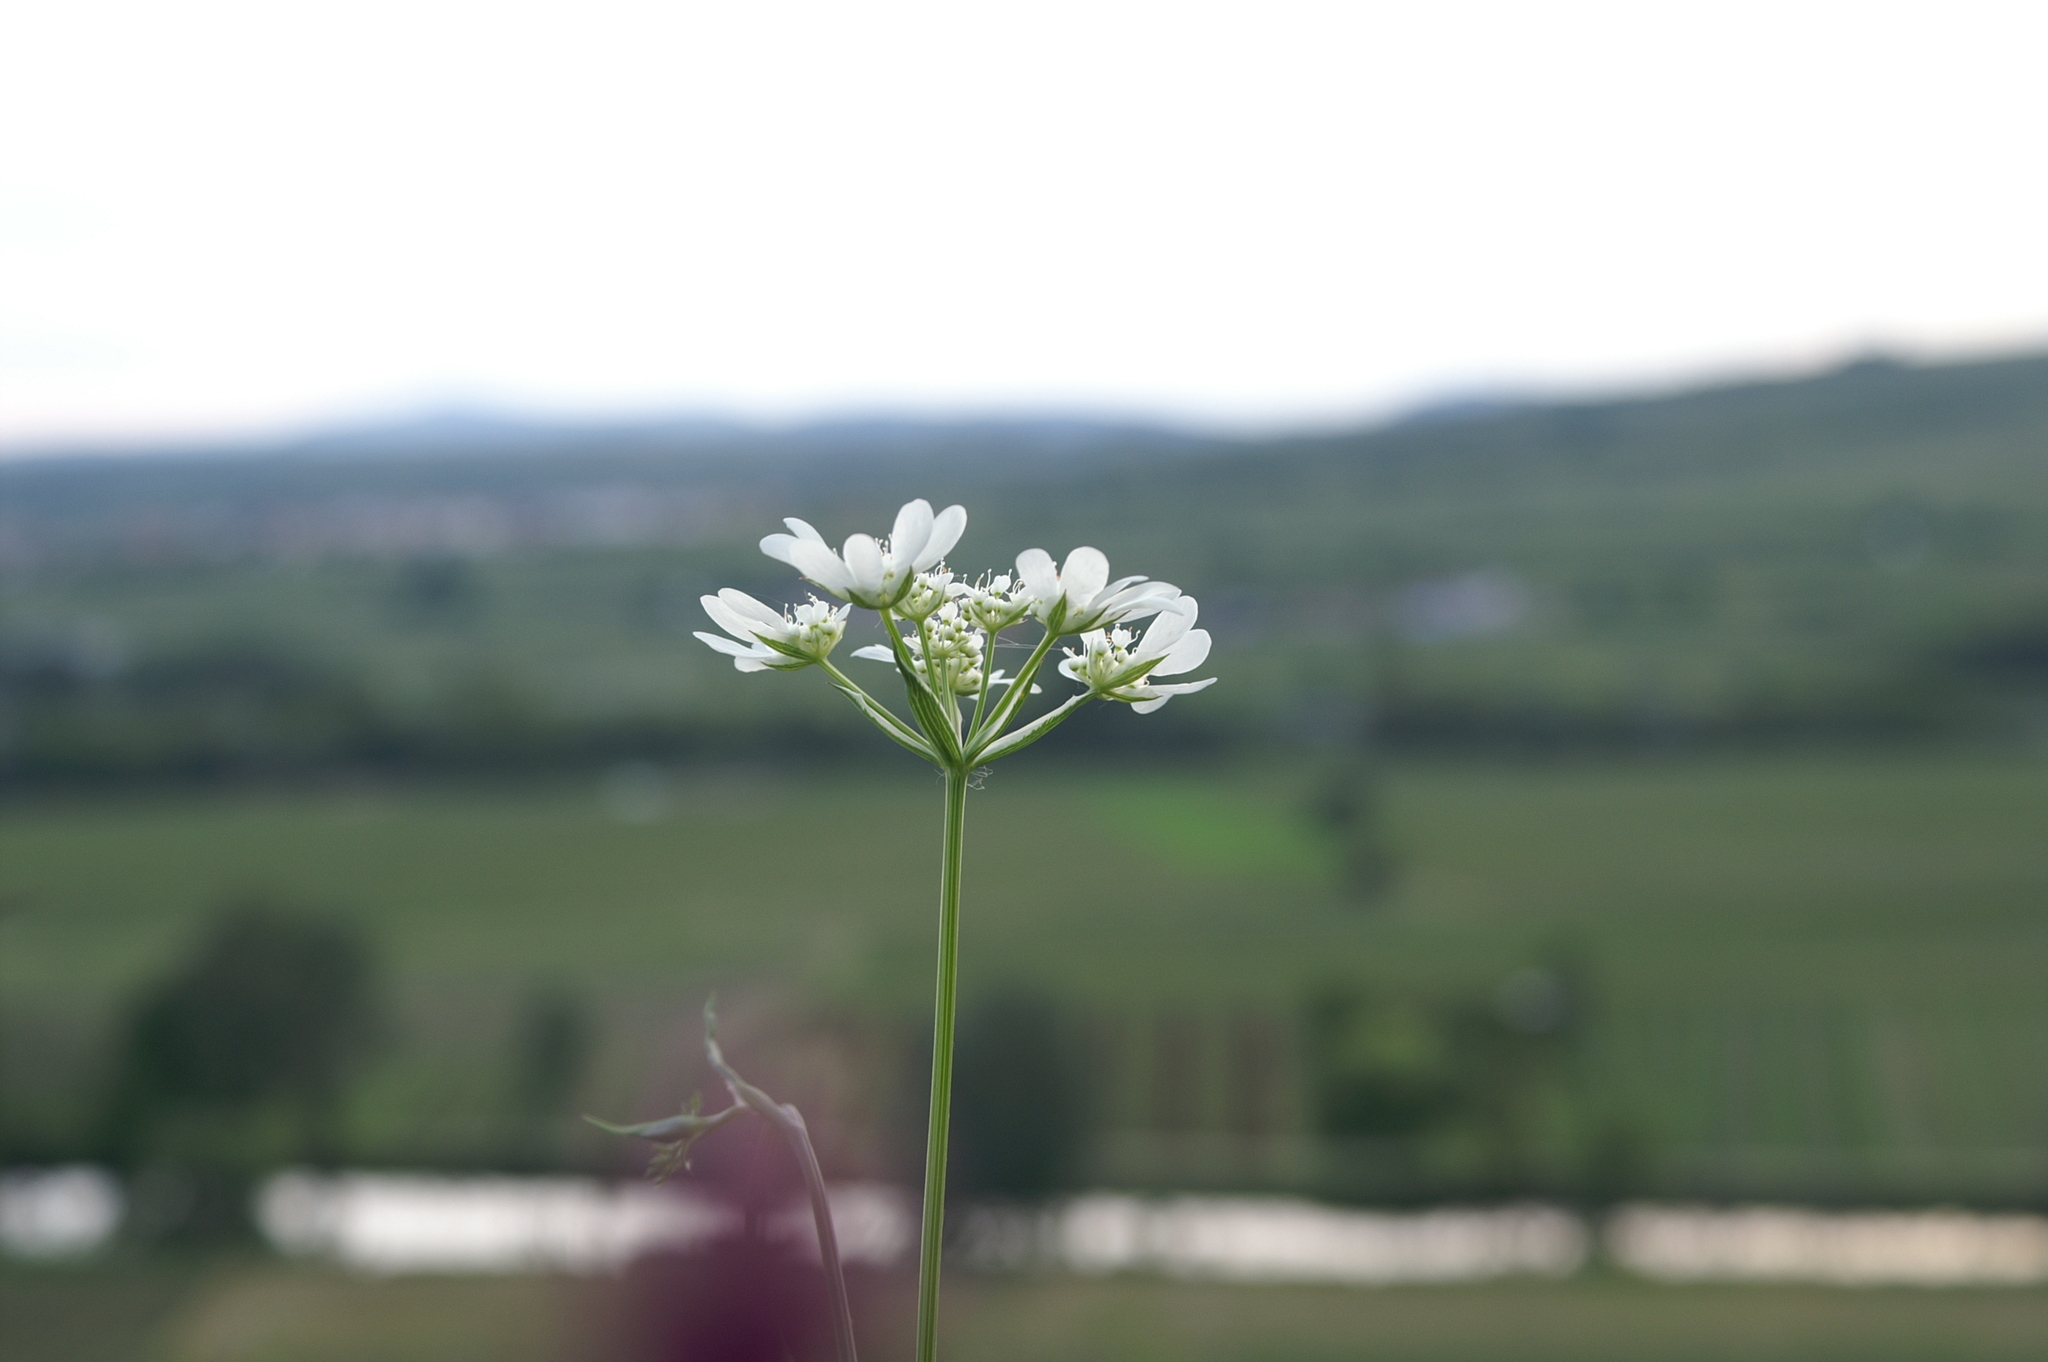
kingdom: Plantae
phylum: Tracheophyta
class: Magnoliopsida
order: Apiales
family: Apiaceae
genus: Orlaya
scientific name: Orlaya grandiflora
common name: White lace flower
